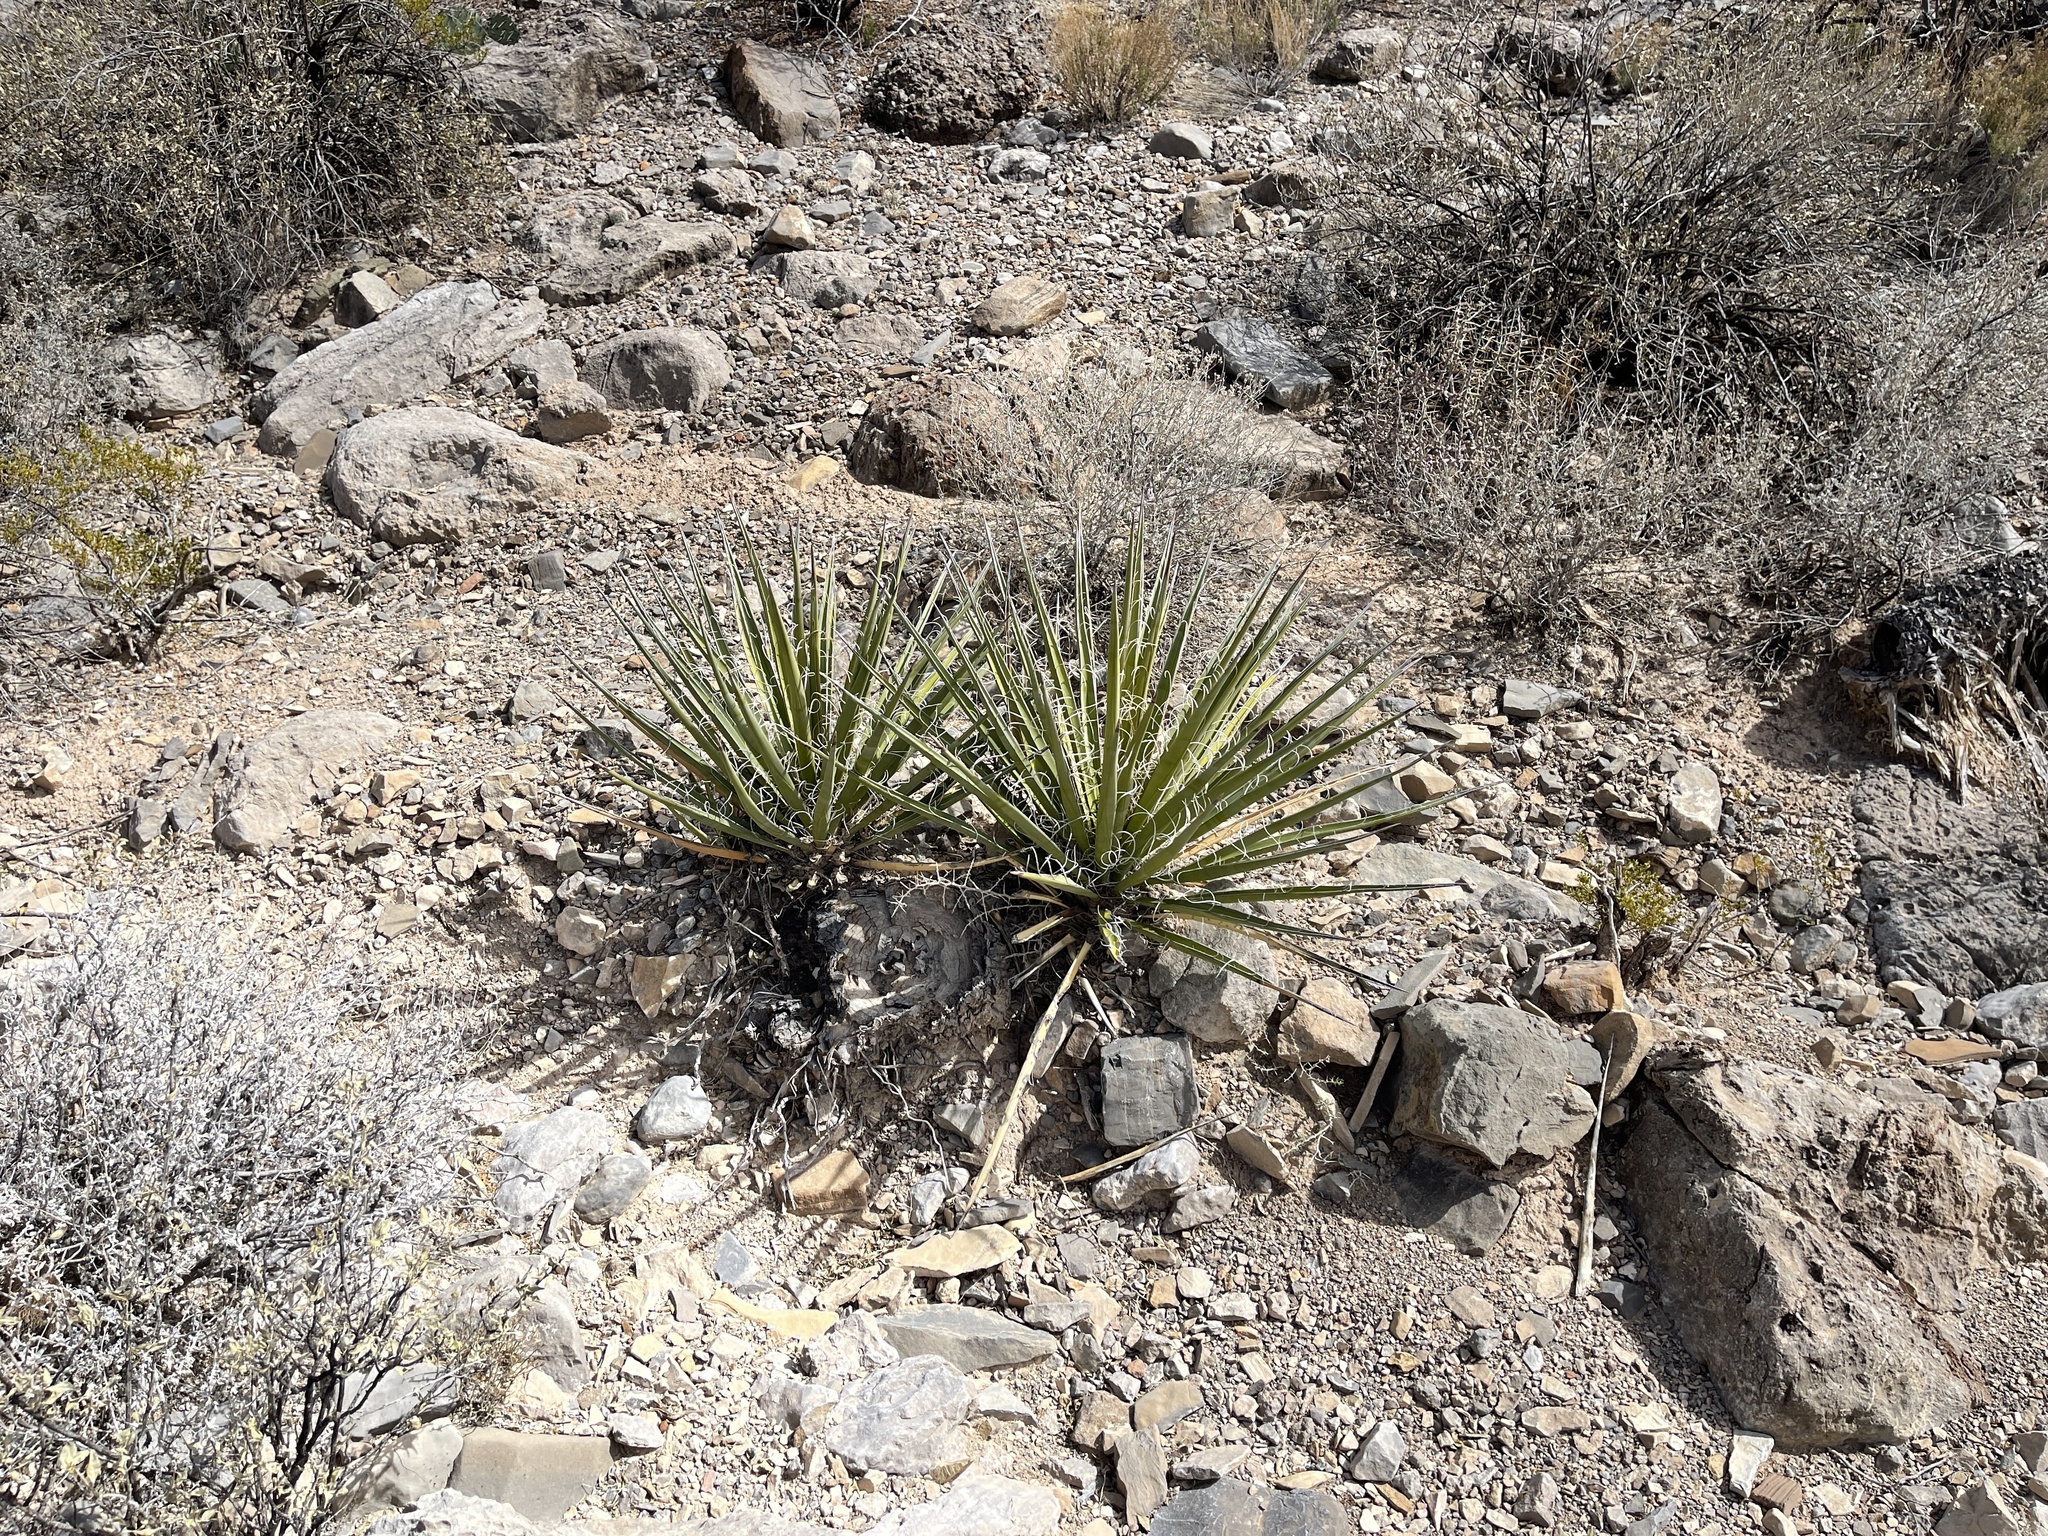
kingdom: Plantae
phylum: Tracheophyta
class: Liliopsida
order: Asparagales
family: Asparagaceae
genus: Yucca
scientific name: Yucca baccata
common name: Banana yucca
